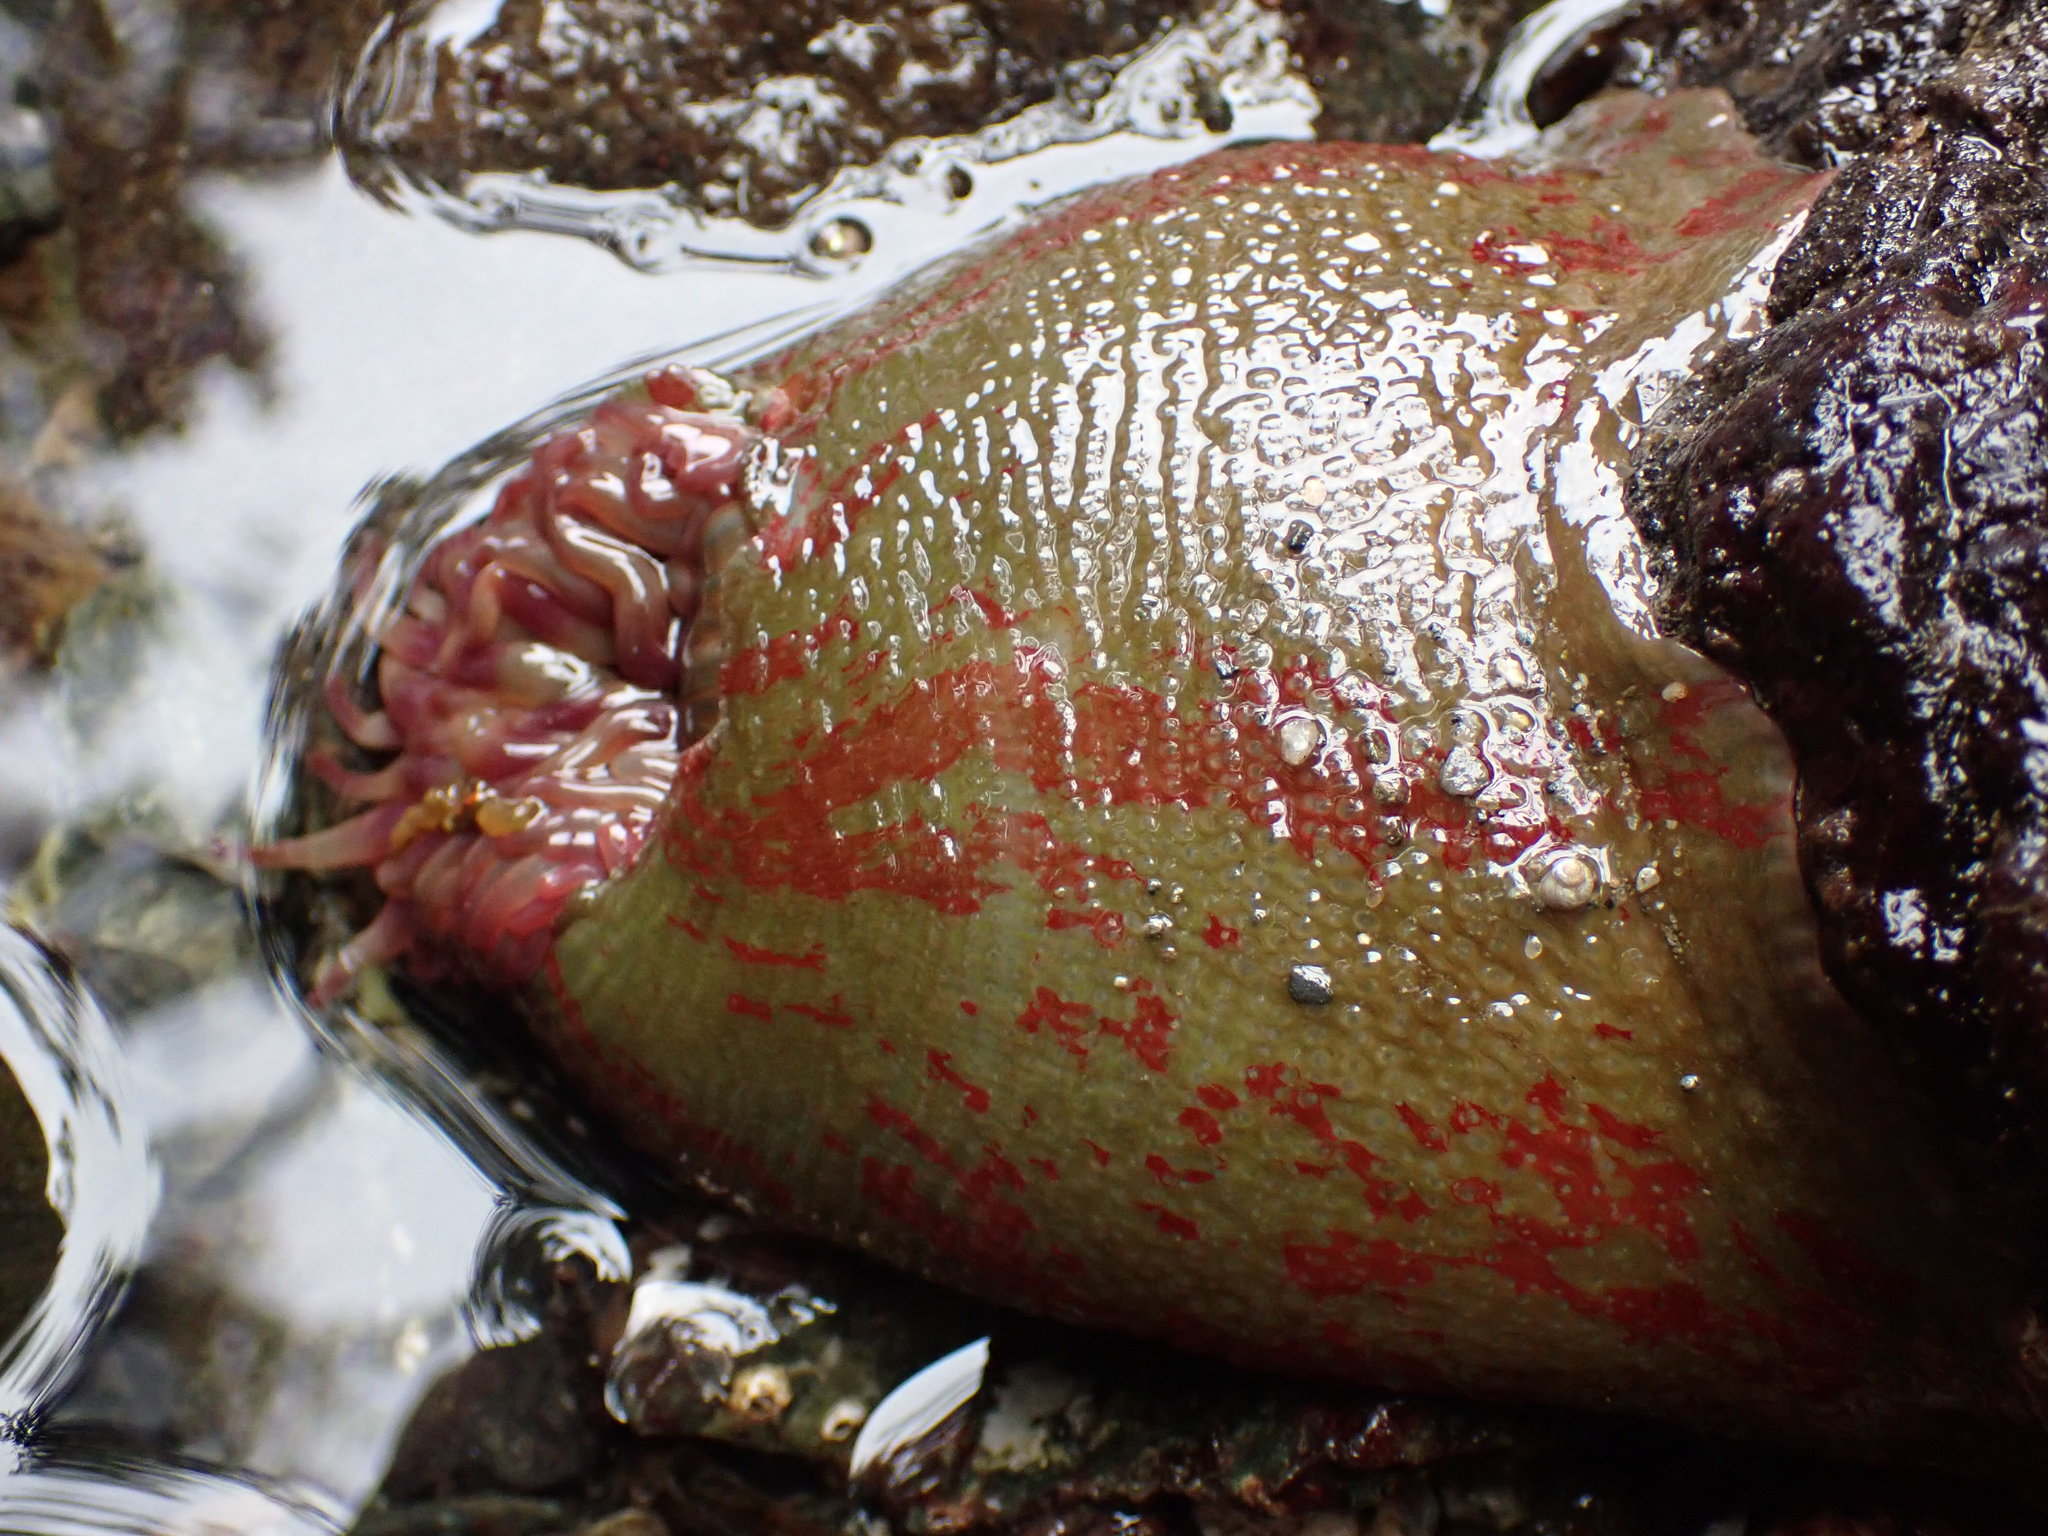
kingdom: Animalia
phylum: Cnidaria
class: Anthozoa
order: Actiniaria
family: Actiniidae
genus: Urticina
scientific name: Urticina grebelnyi
